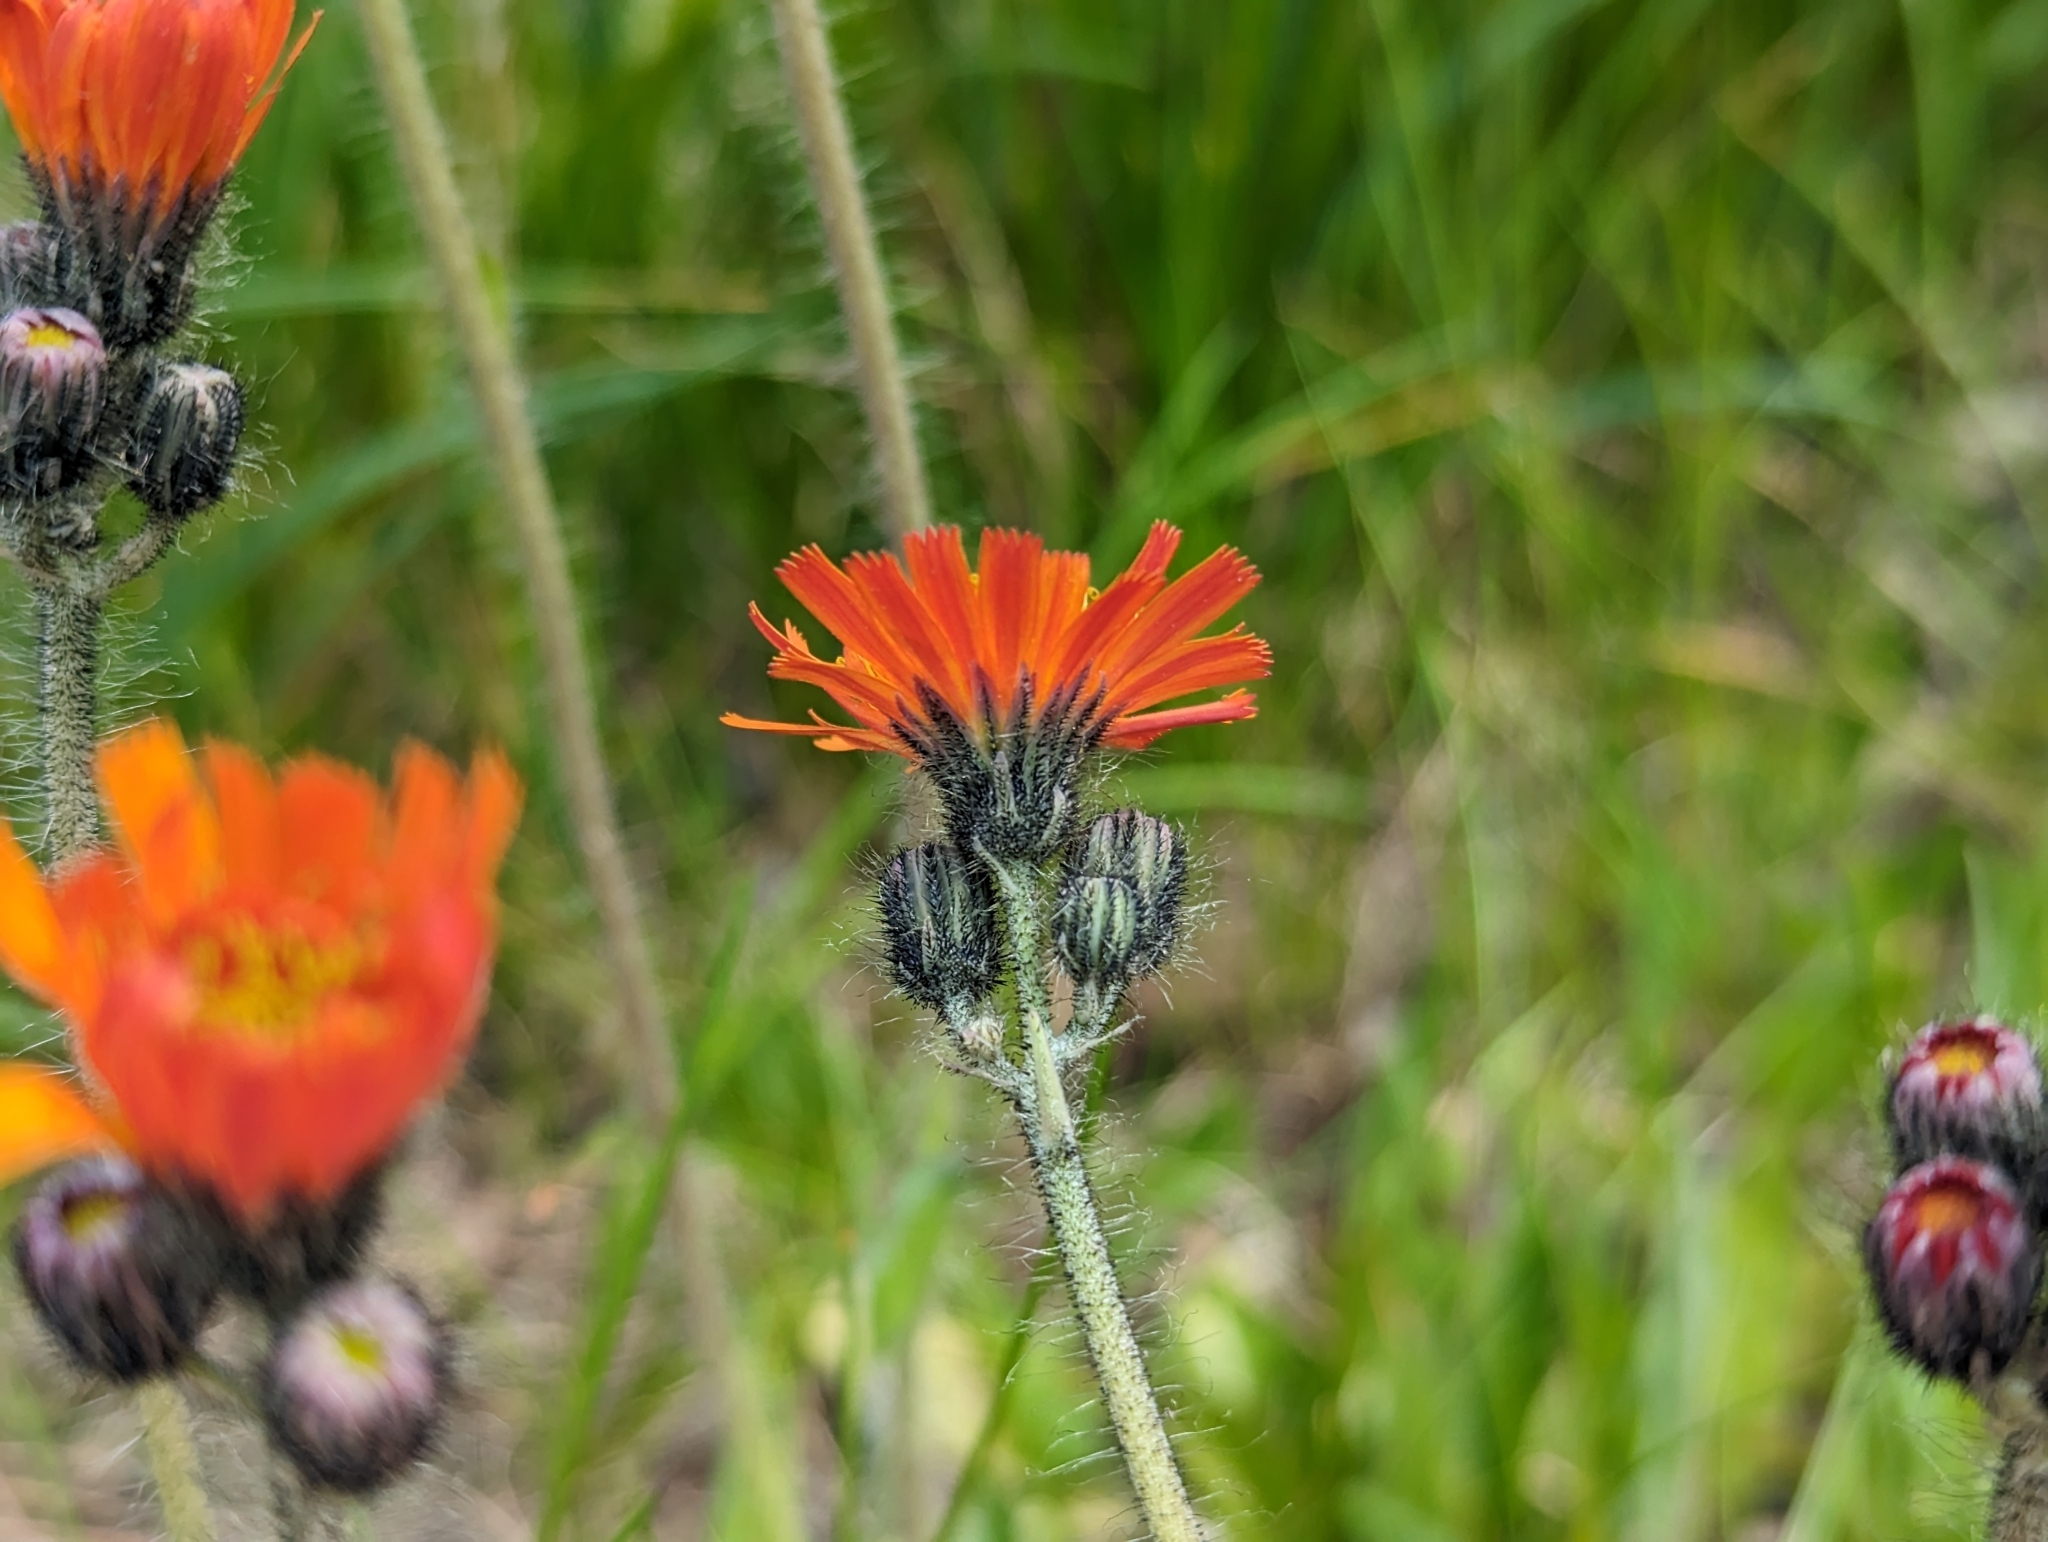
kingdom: Plantae
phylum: Tracheophyta
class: Magnoliopsida
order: Asterales
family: Asteraceae
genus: Pilosella
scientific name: Pilosella aurantiaca
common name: Fox-and-cubs
